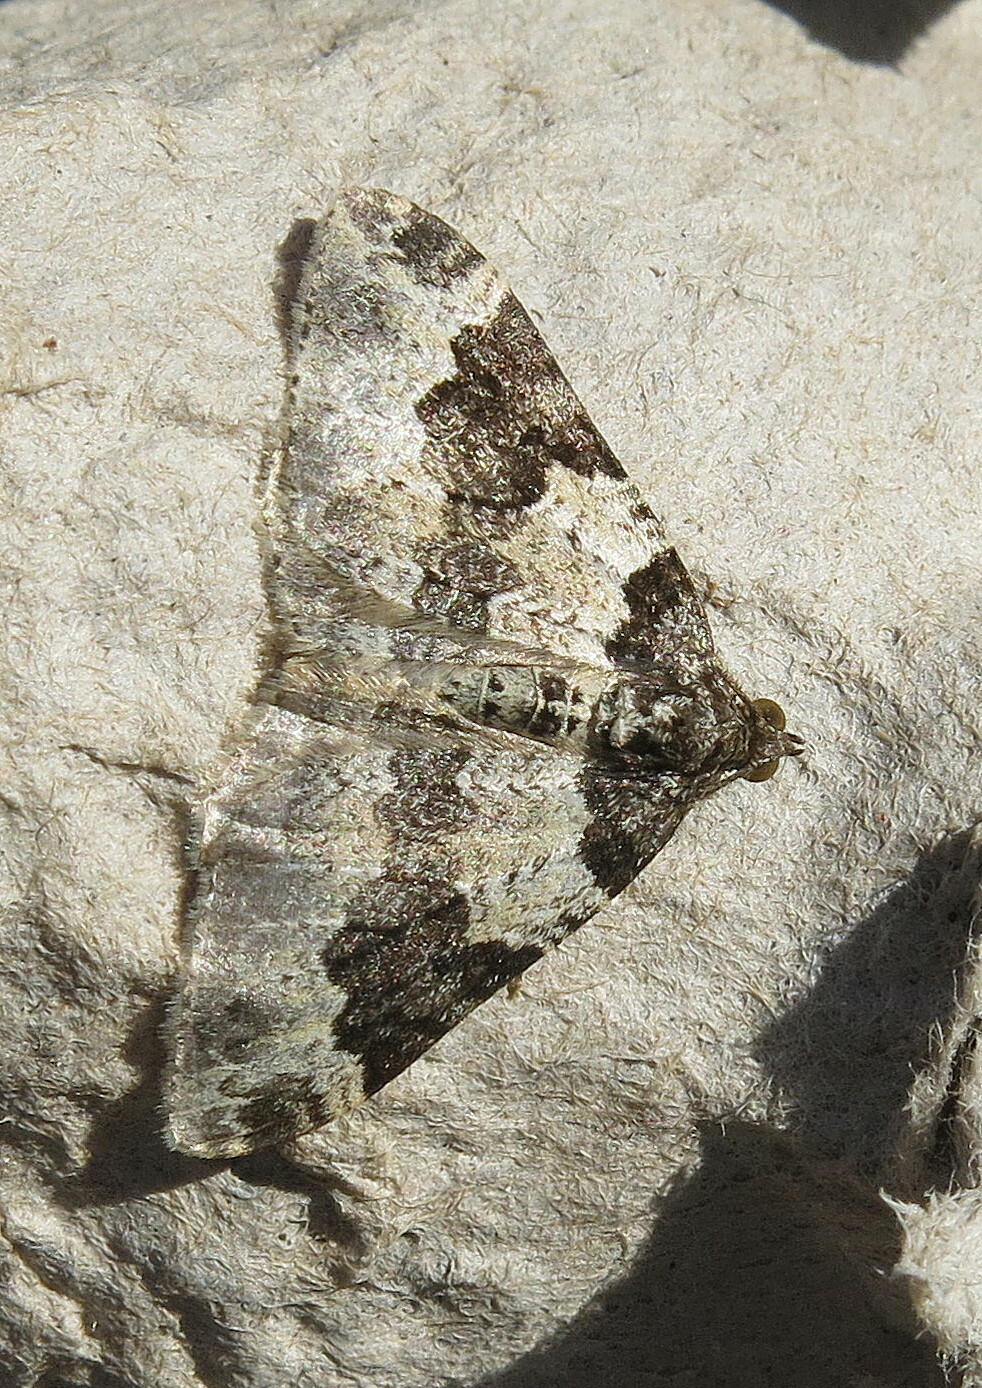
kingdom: Animalia
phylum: Arthropoda
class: Insecta
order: Lepidoptera
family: Geometridae
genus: Xanthorhoe
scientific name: Xanthorhoe fluctuata
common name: Garden carpet
